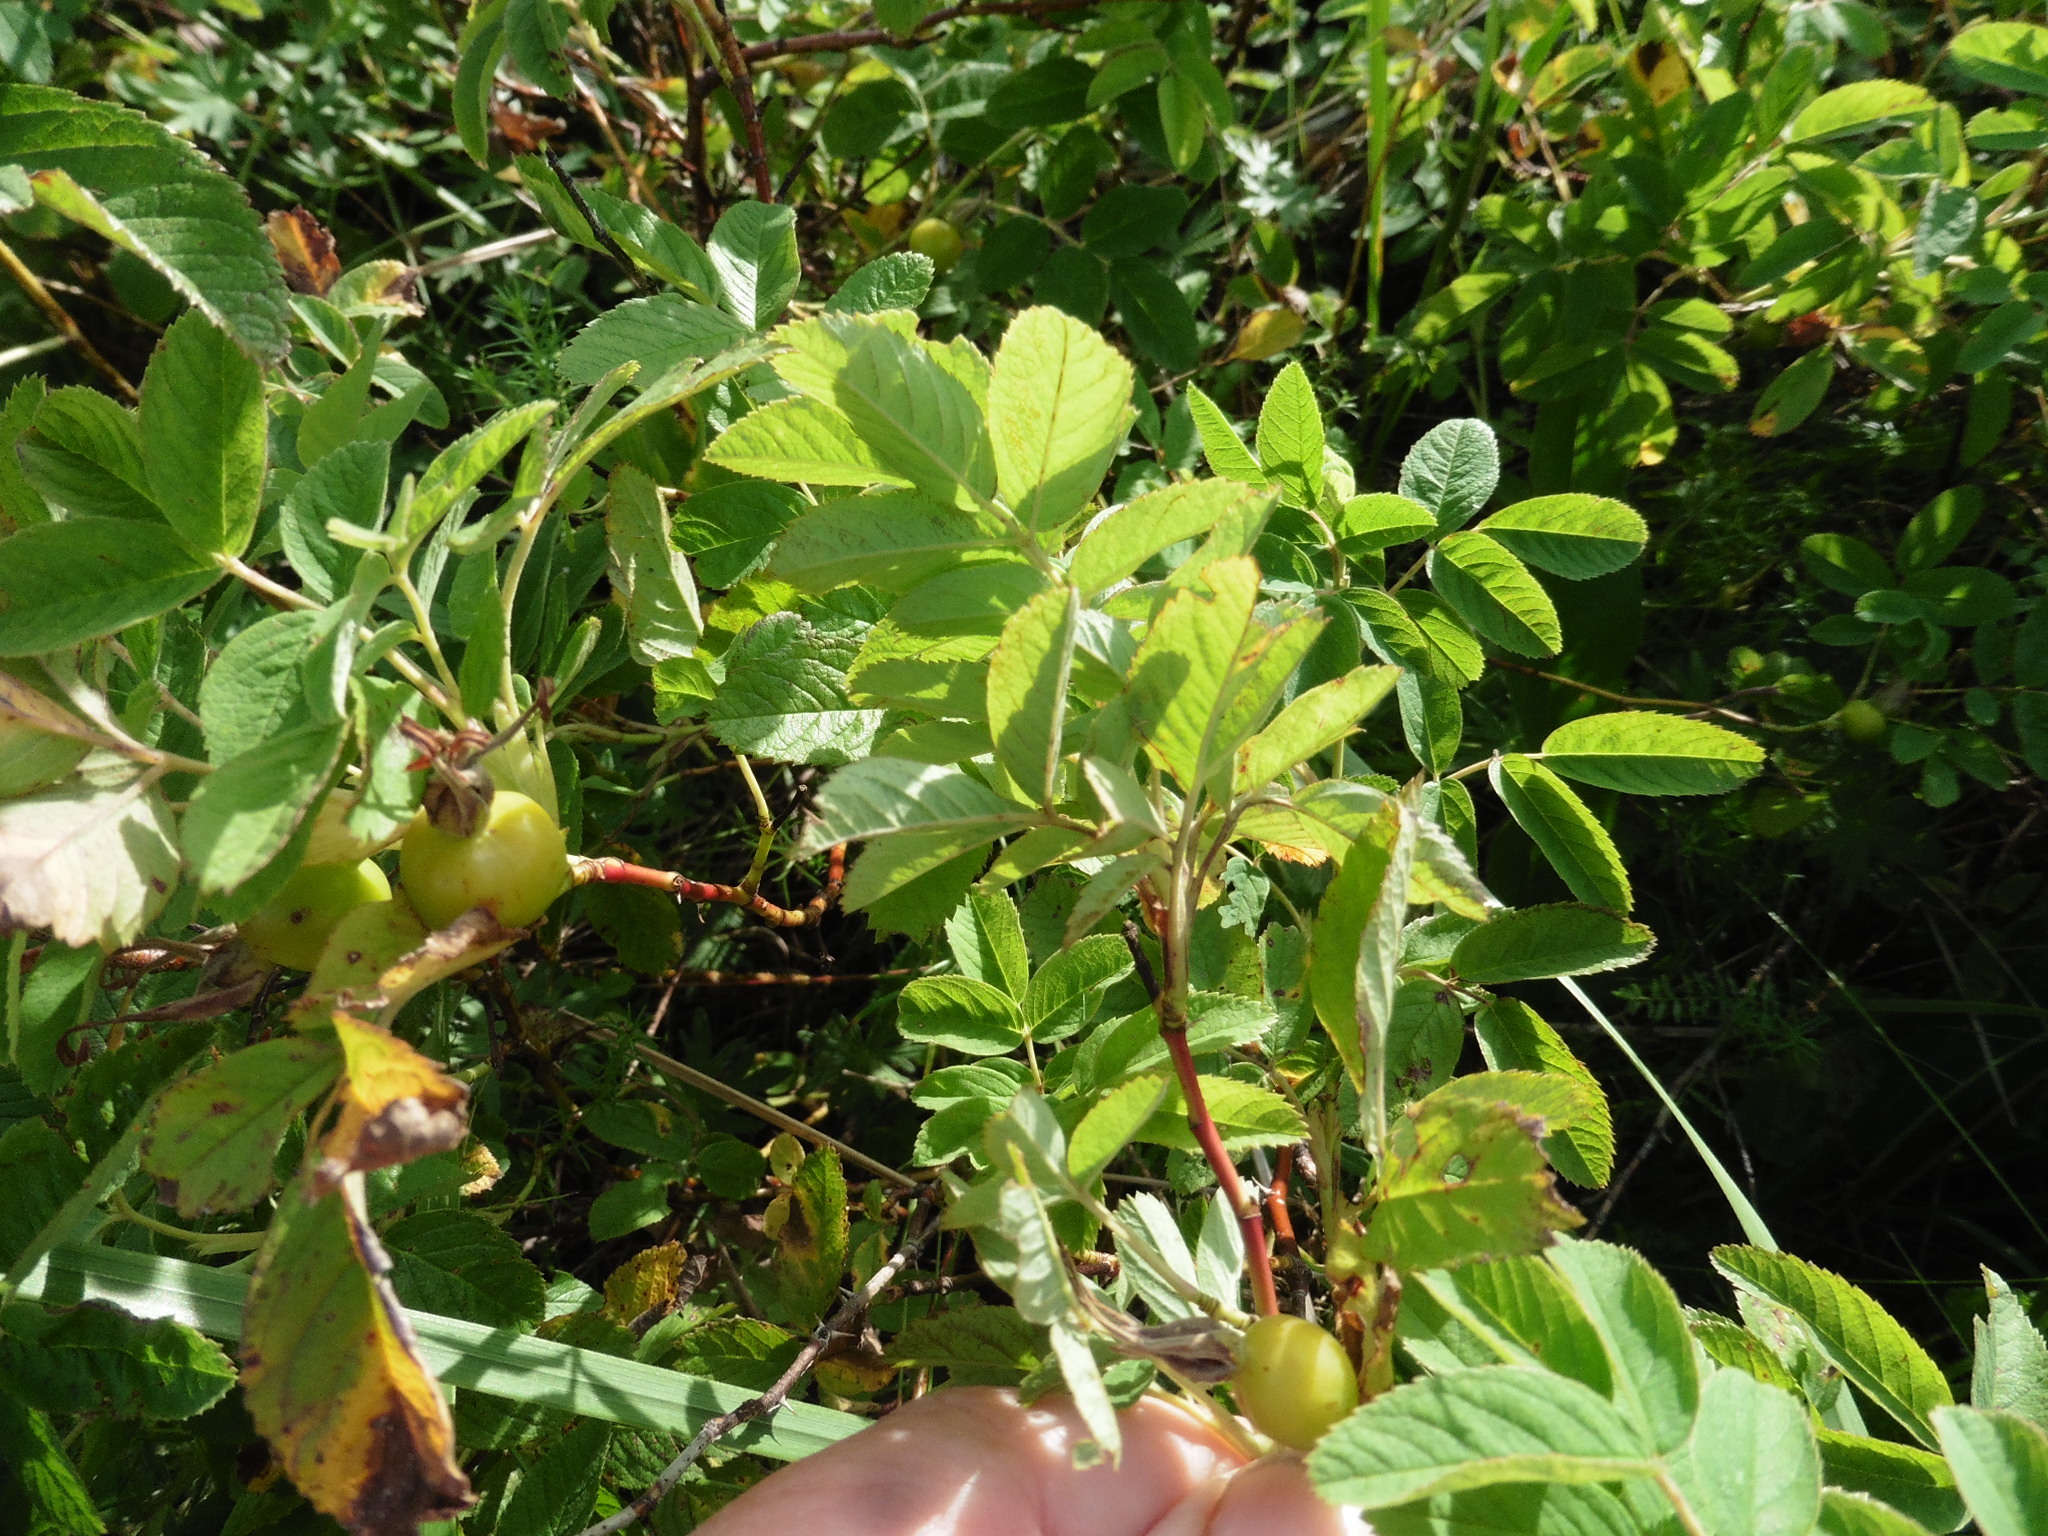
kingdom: Plantae
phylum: Tracheophyta
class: Magnoliopsida
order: Rosales
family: Rosaceae
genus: Rosa
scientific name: Rosa majalis
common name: Cinnamon rose
